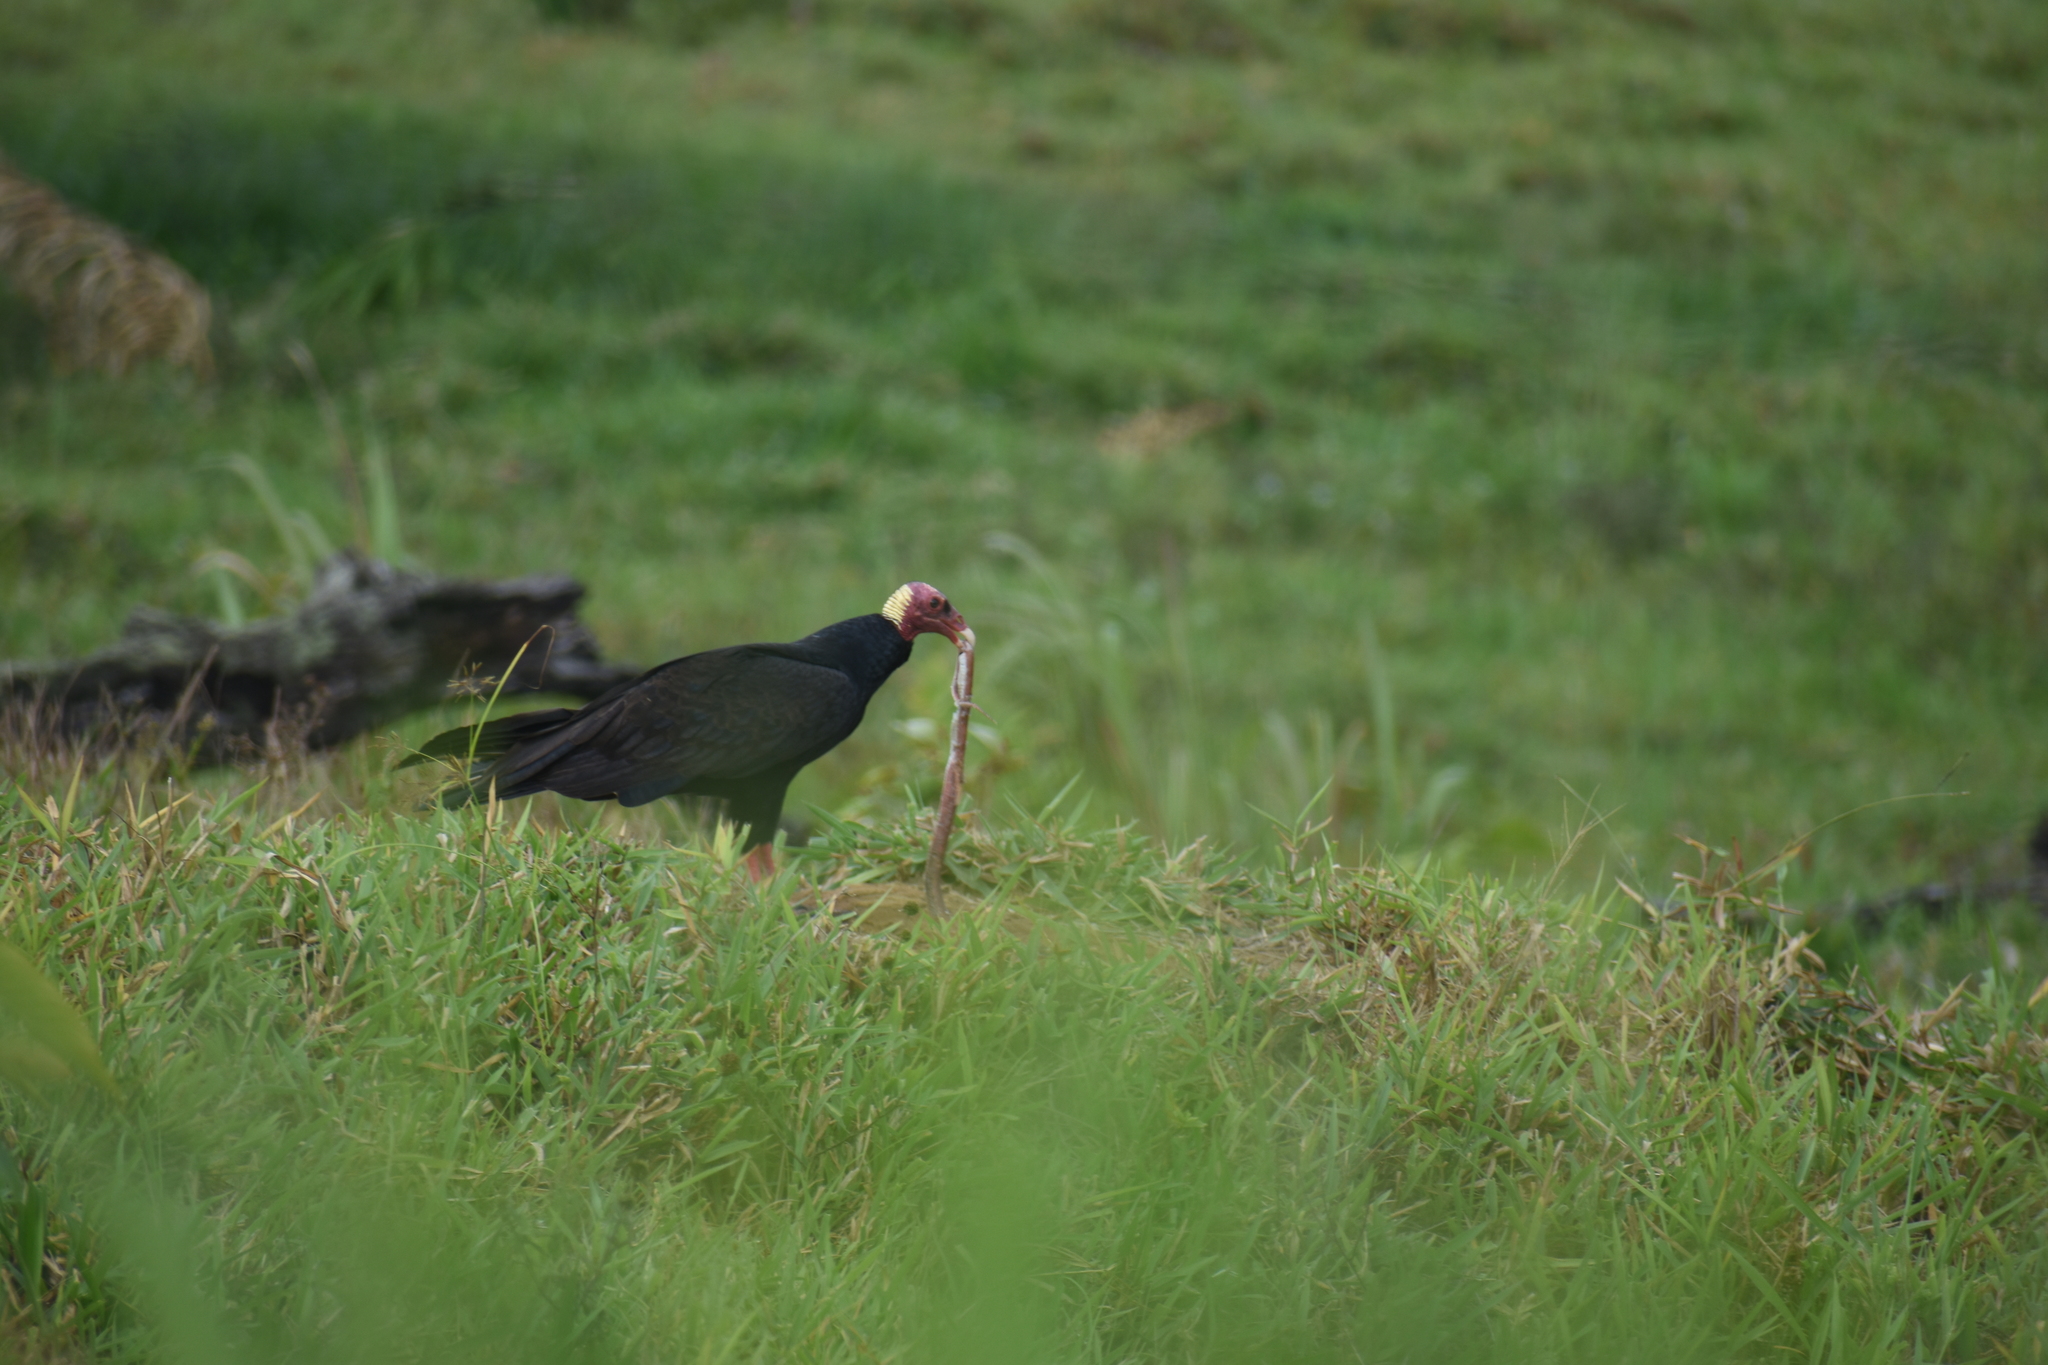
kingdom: Animalia
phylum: Chordata
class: Aves
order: Accipitriformes
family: Cathartidae
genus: Cathartes
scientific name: Cathartes aura
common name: Turkey vulture
